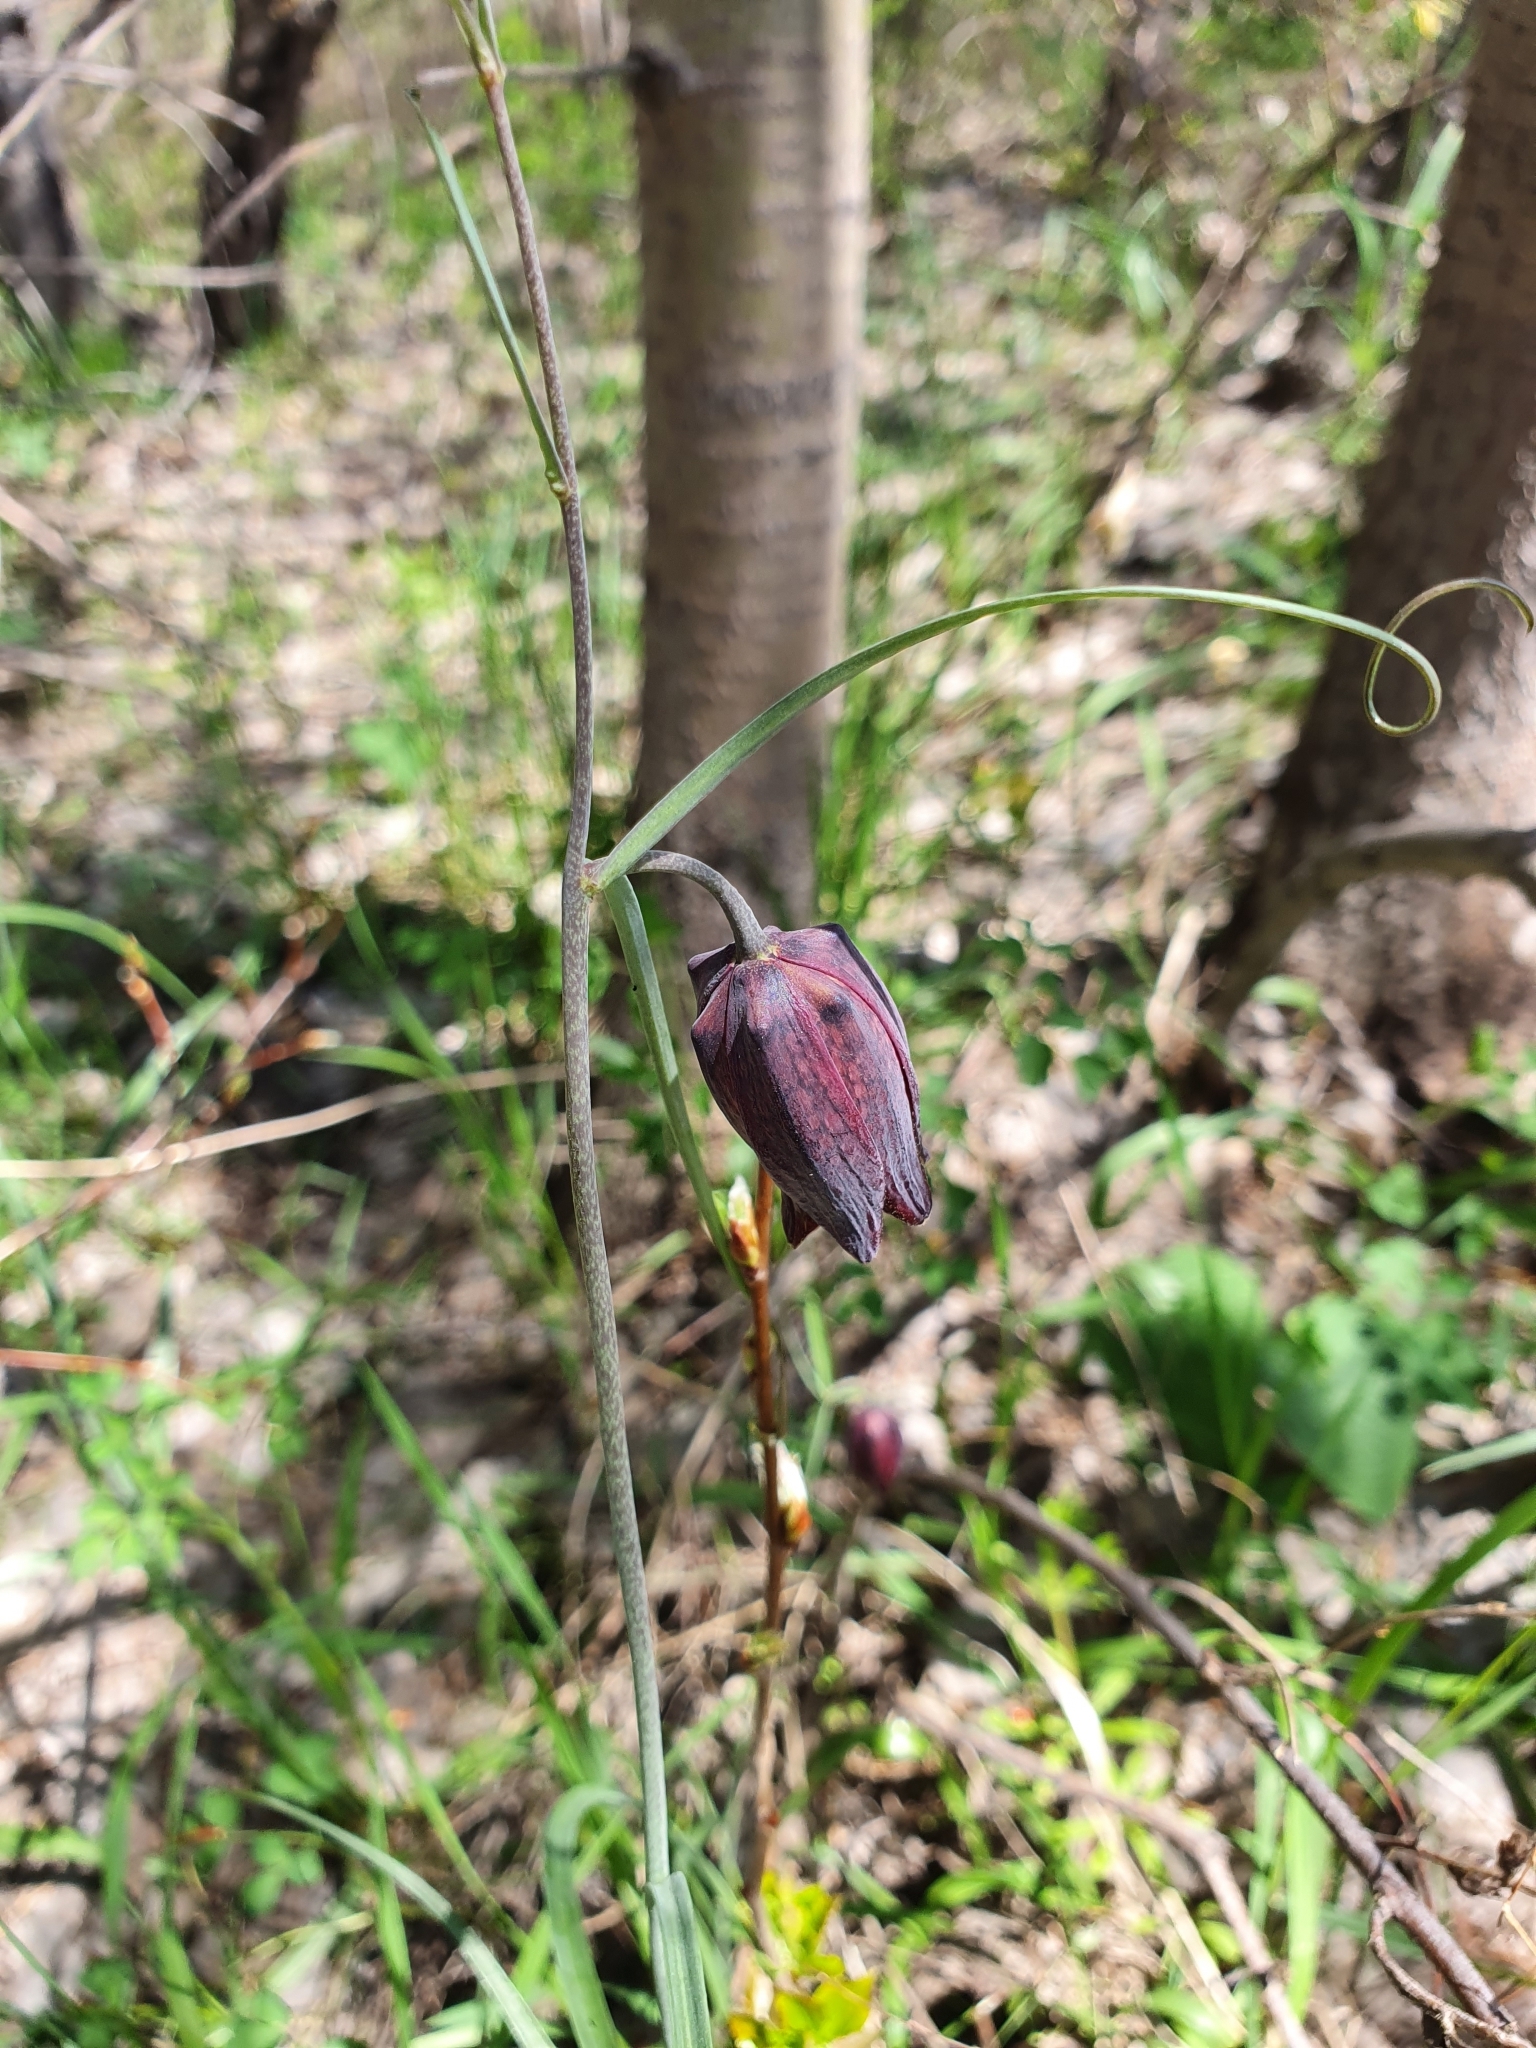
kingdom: Plantae
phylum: Tracheophyta
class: Liliopsida
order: Liliales
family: Liliaceae
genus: Fritillaria
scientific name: Fritillaria ruthenica
